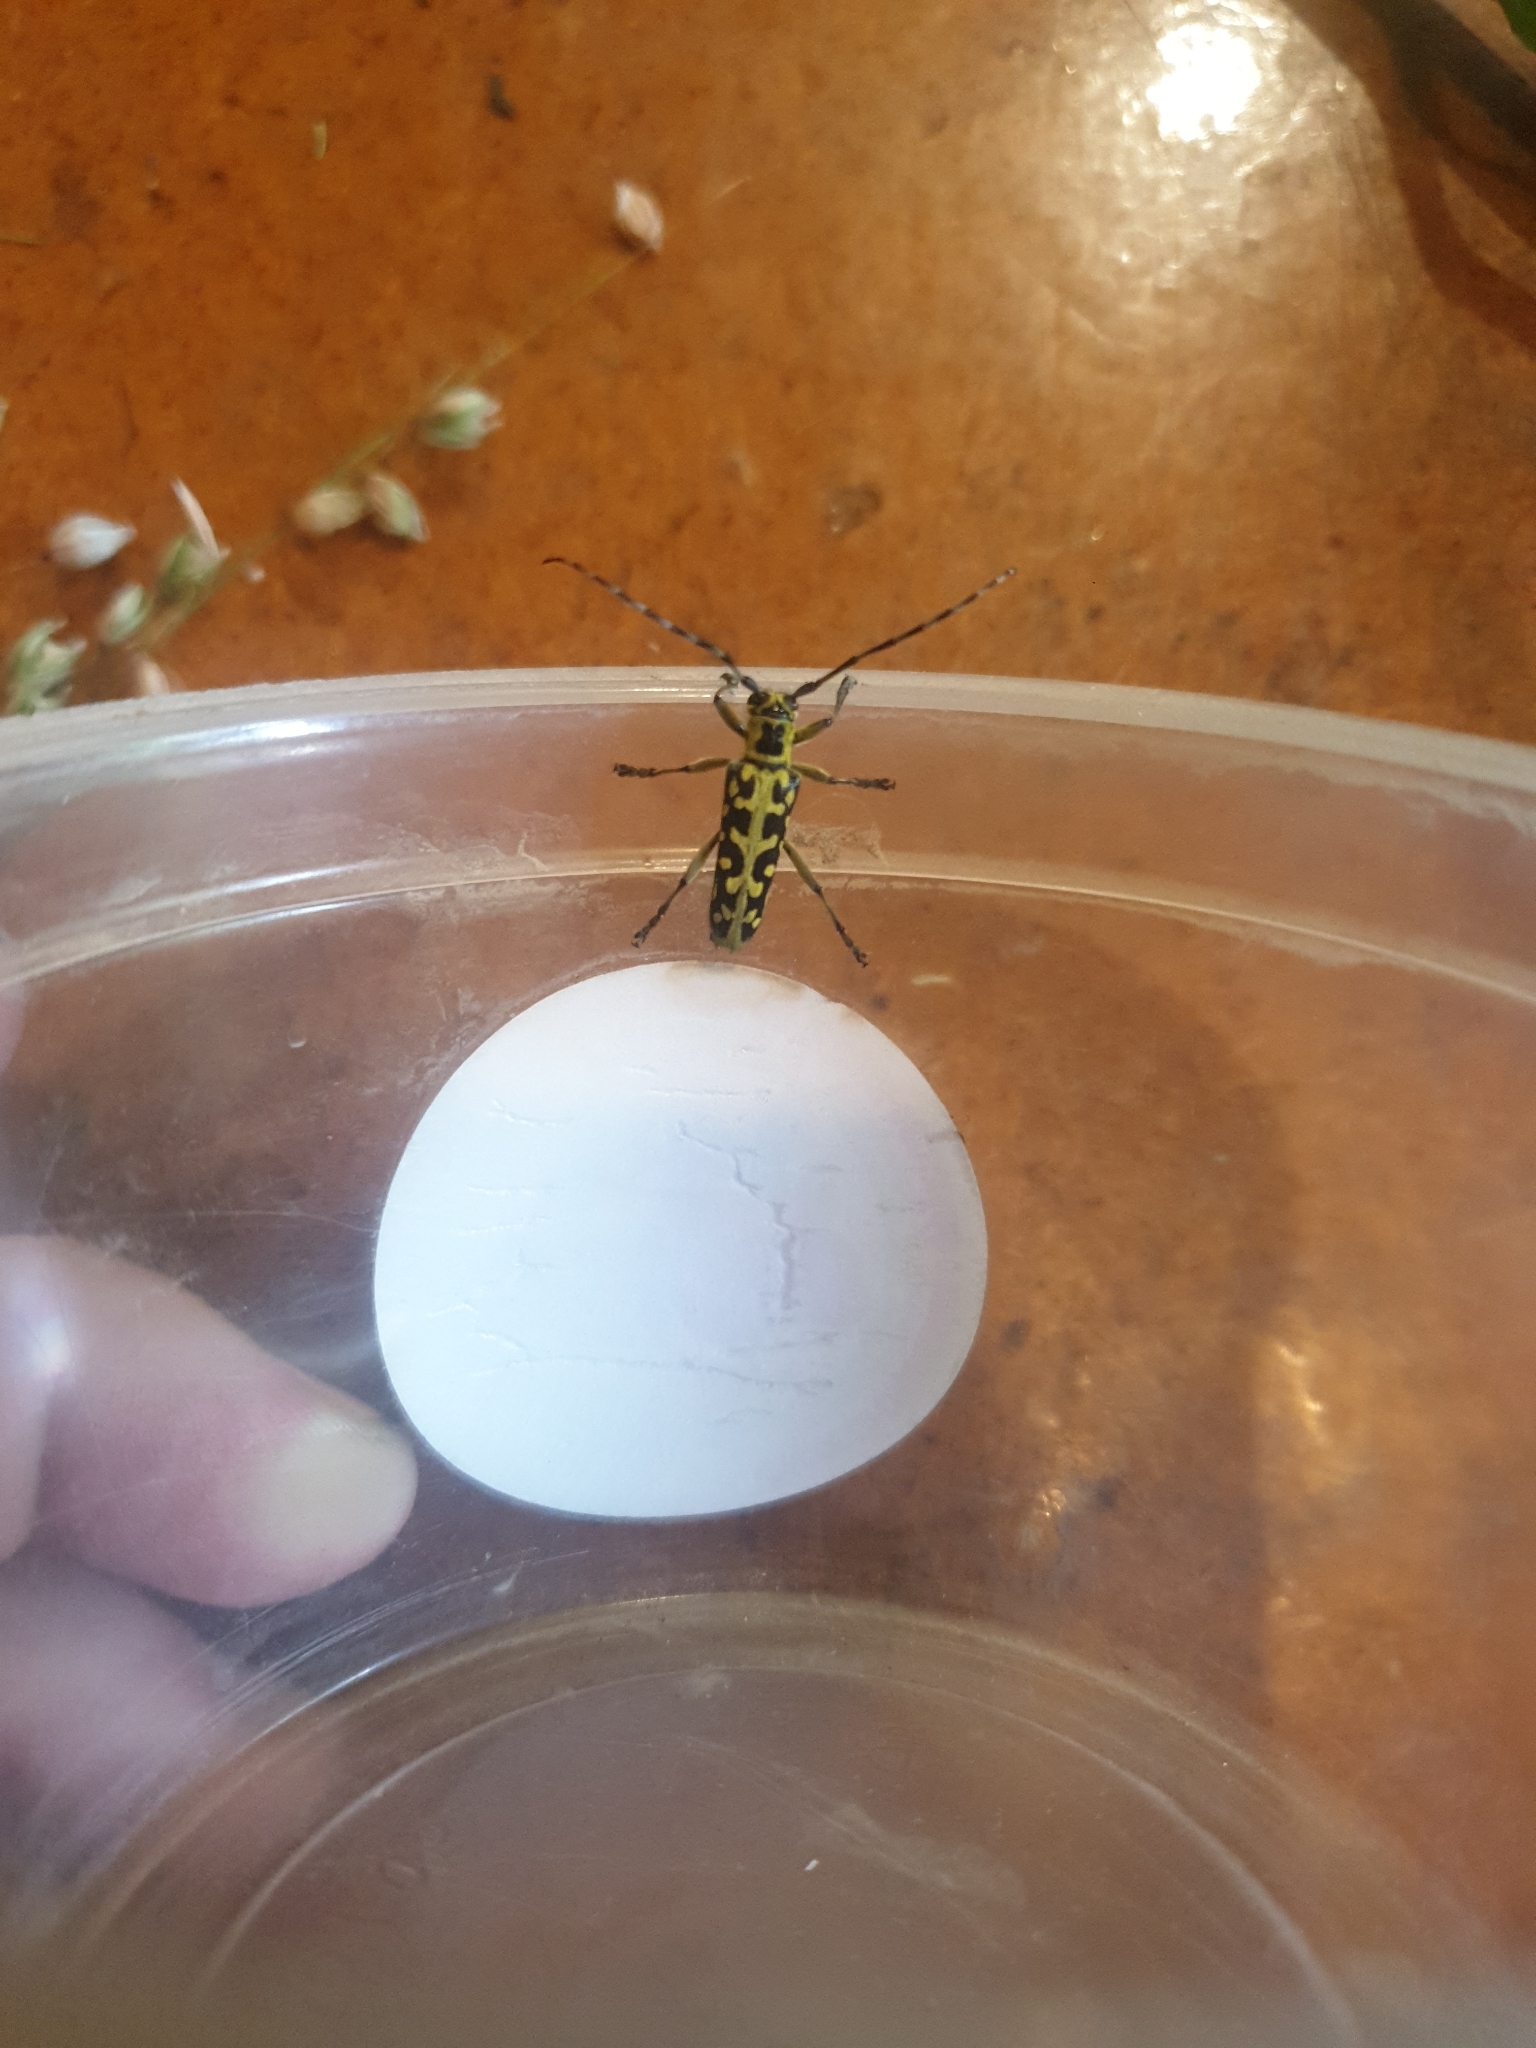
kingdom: Animalia
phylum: Arthropoda
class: Insecta
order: Coleoptera
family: Cerambycidae
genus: Saperda
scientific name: Saperda scalaris
